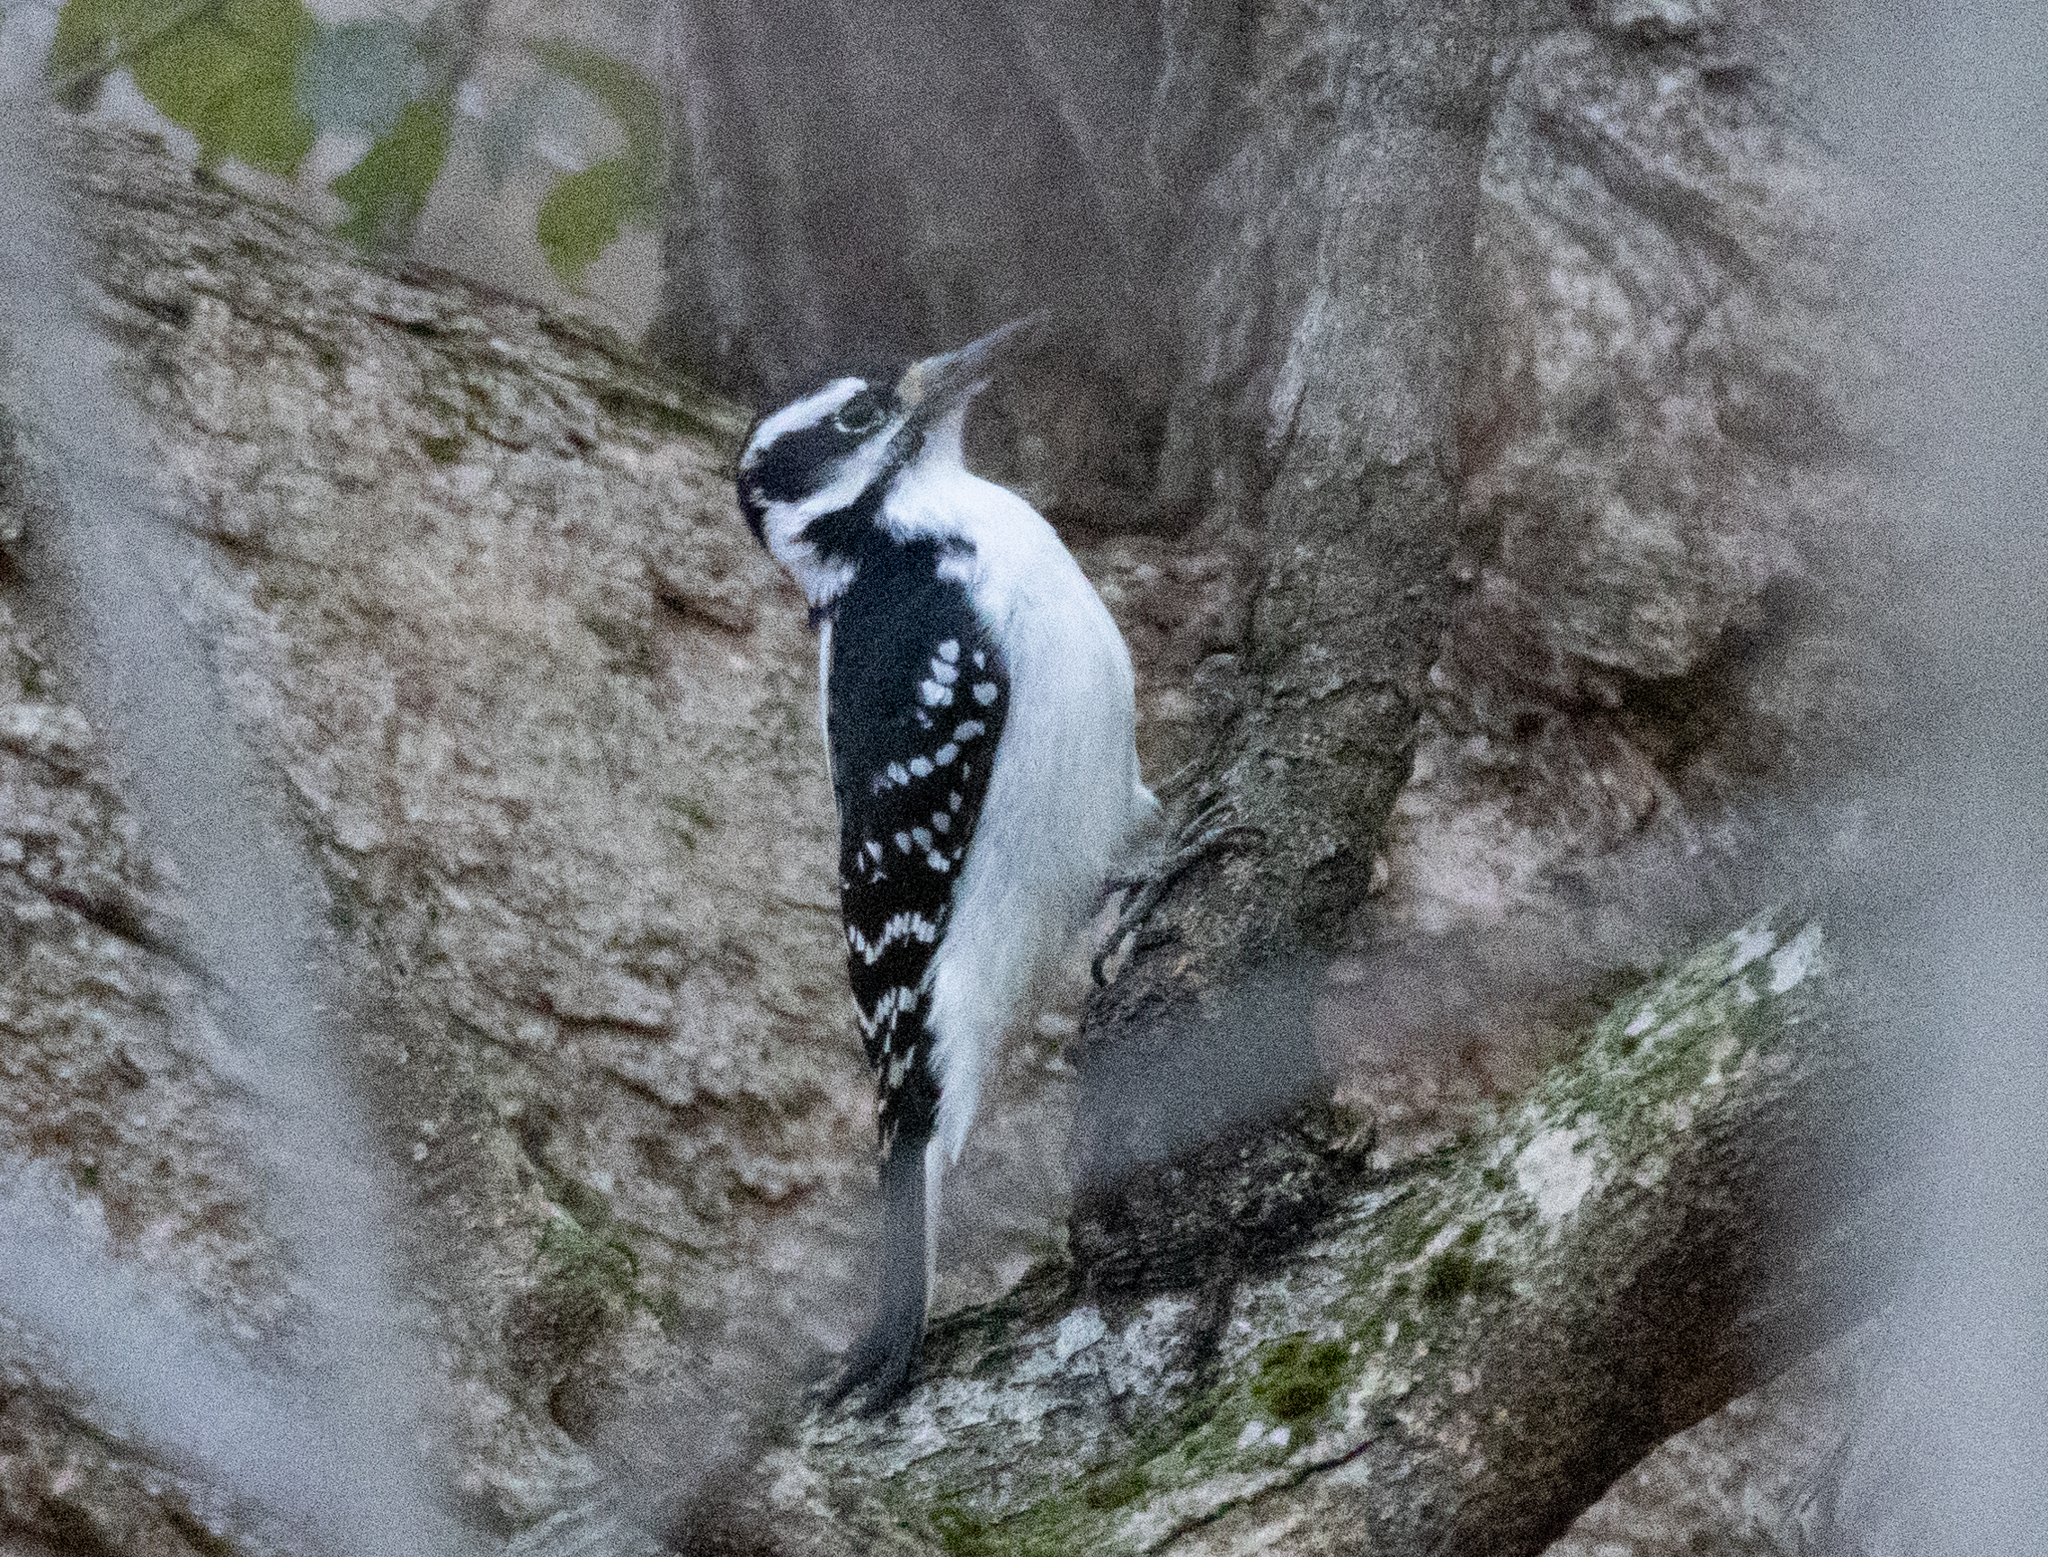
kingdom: Animalia
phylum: Chordata
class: Aves
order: Piciformes
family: Picidae
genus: Leuconotopicus
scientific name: Leuconotopicus villosus
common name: Hairy woodpecker
